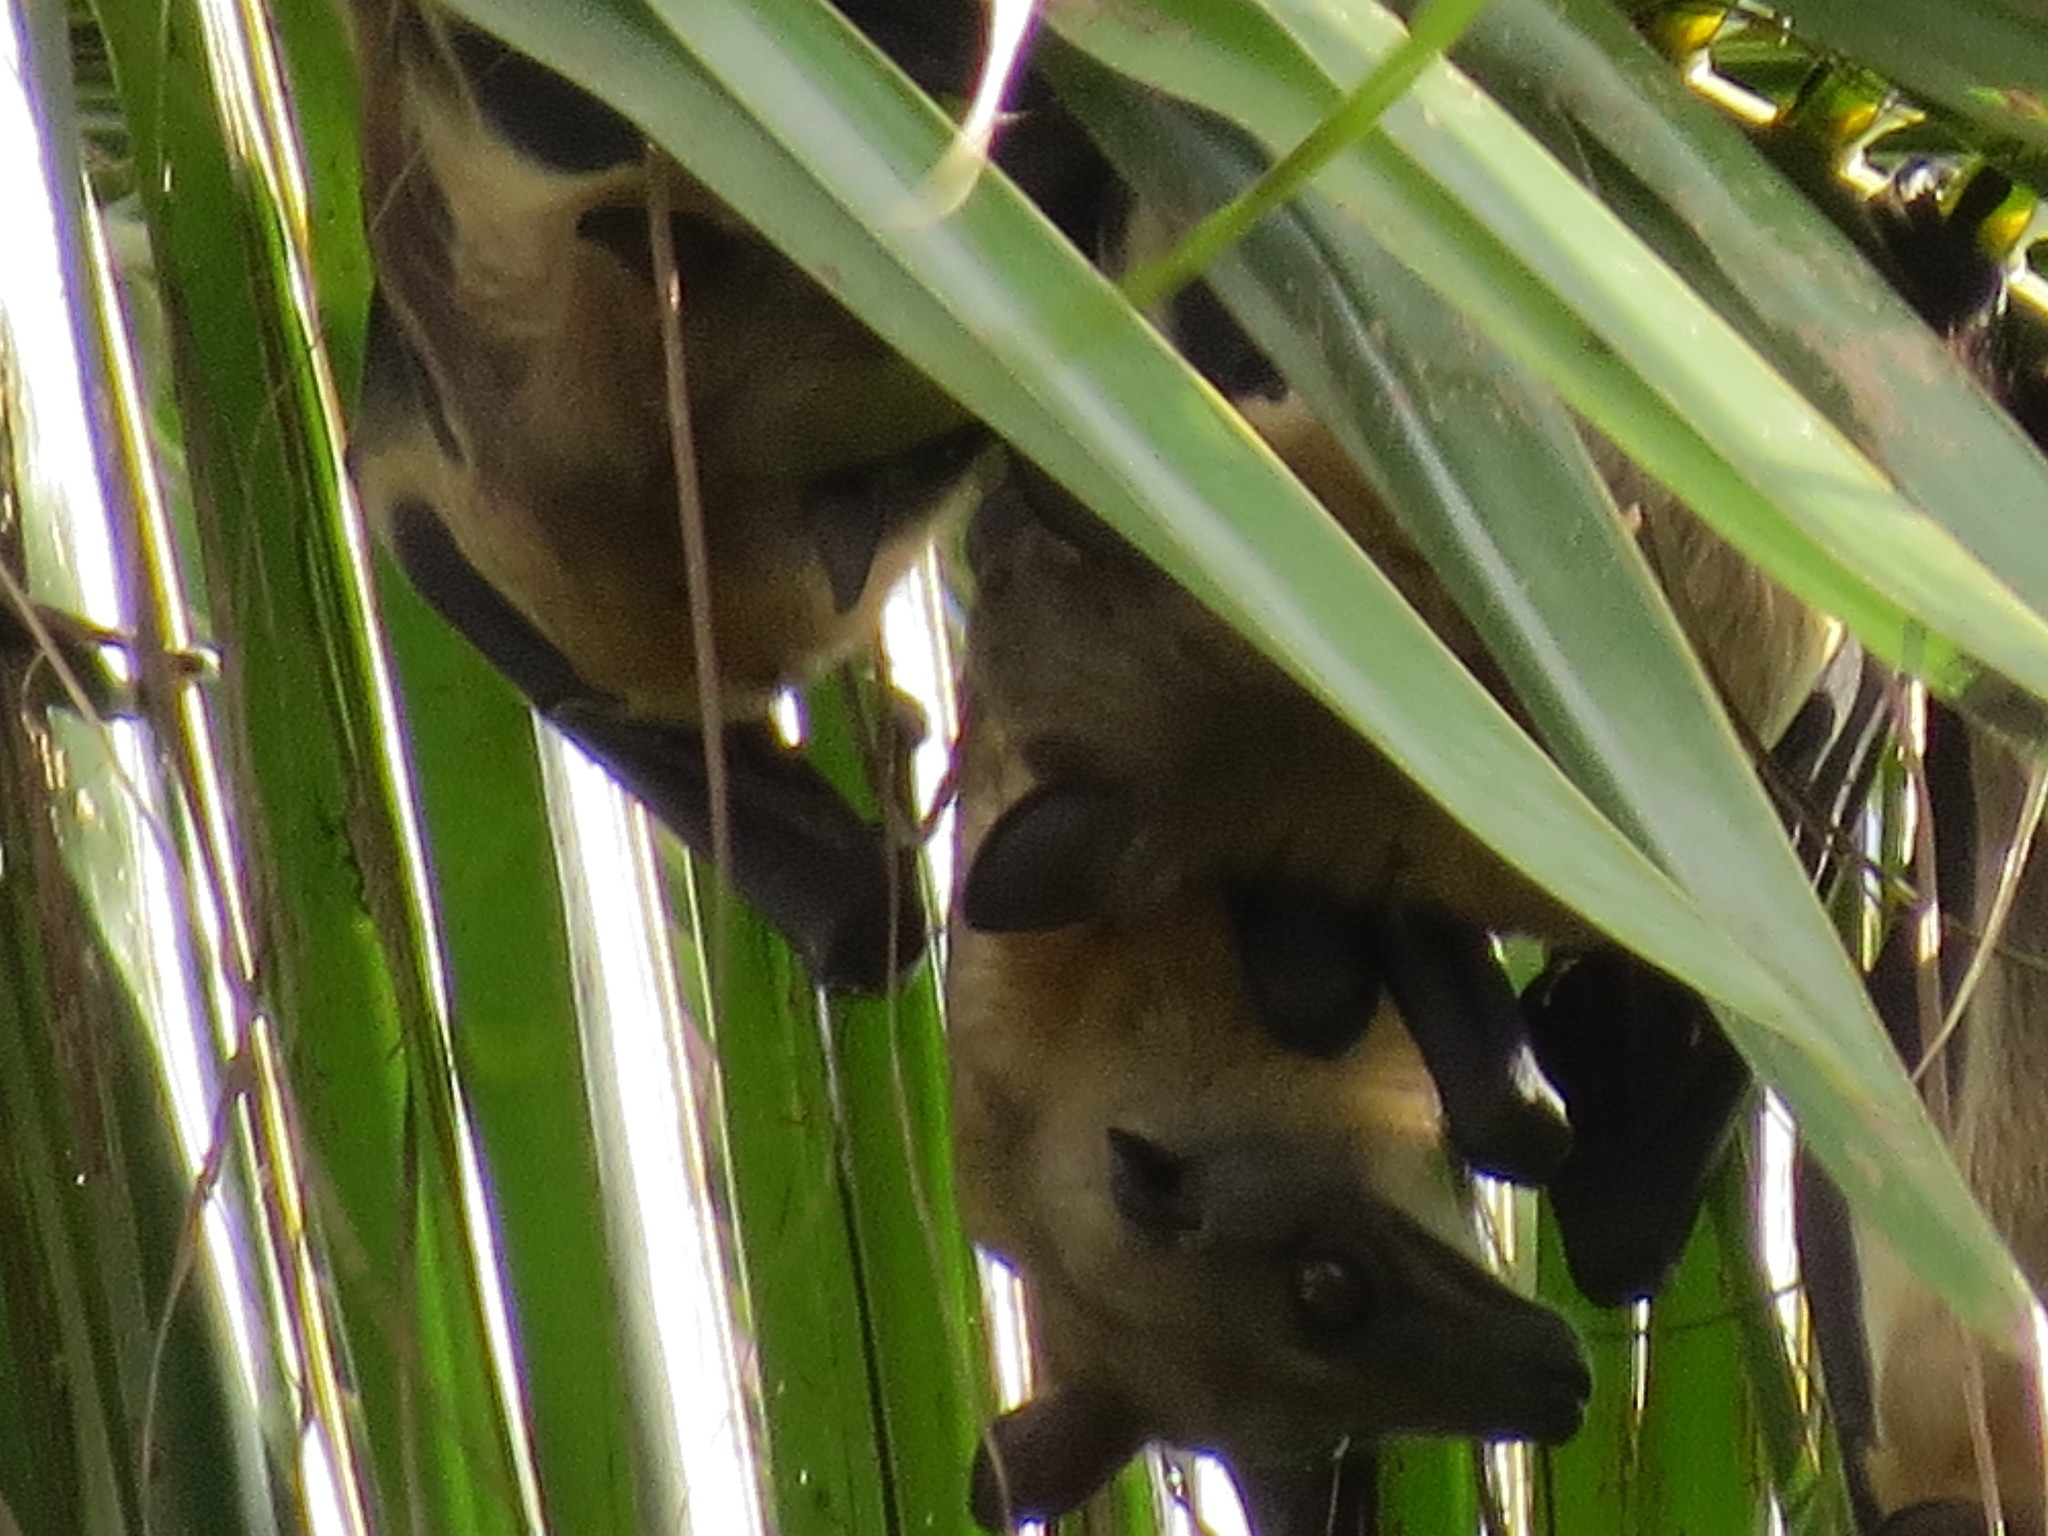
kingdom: Animalia
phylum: Chordata
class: Mammalia
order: Chiroptera
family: Pteropodidae
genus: Eidolon
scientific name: Eidolon helvum
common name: Straw-colored fruit bat
